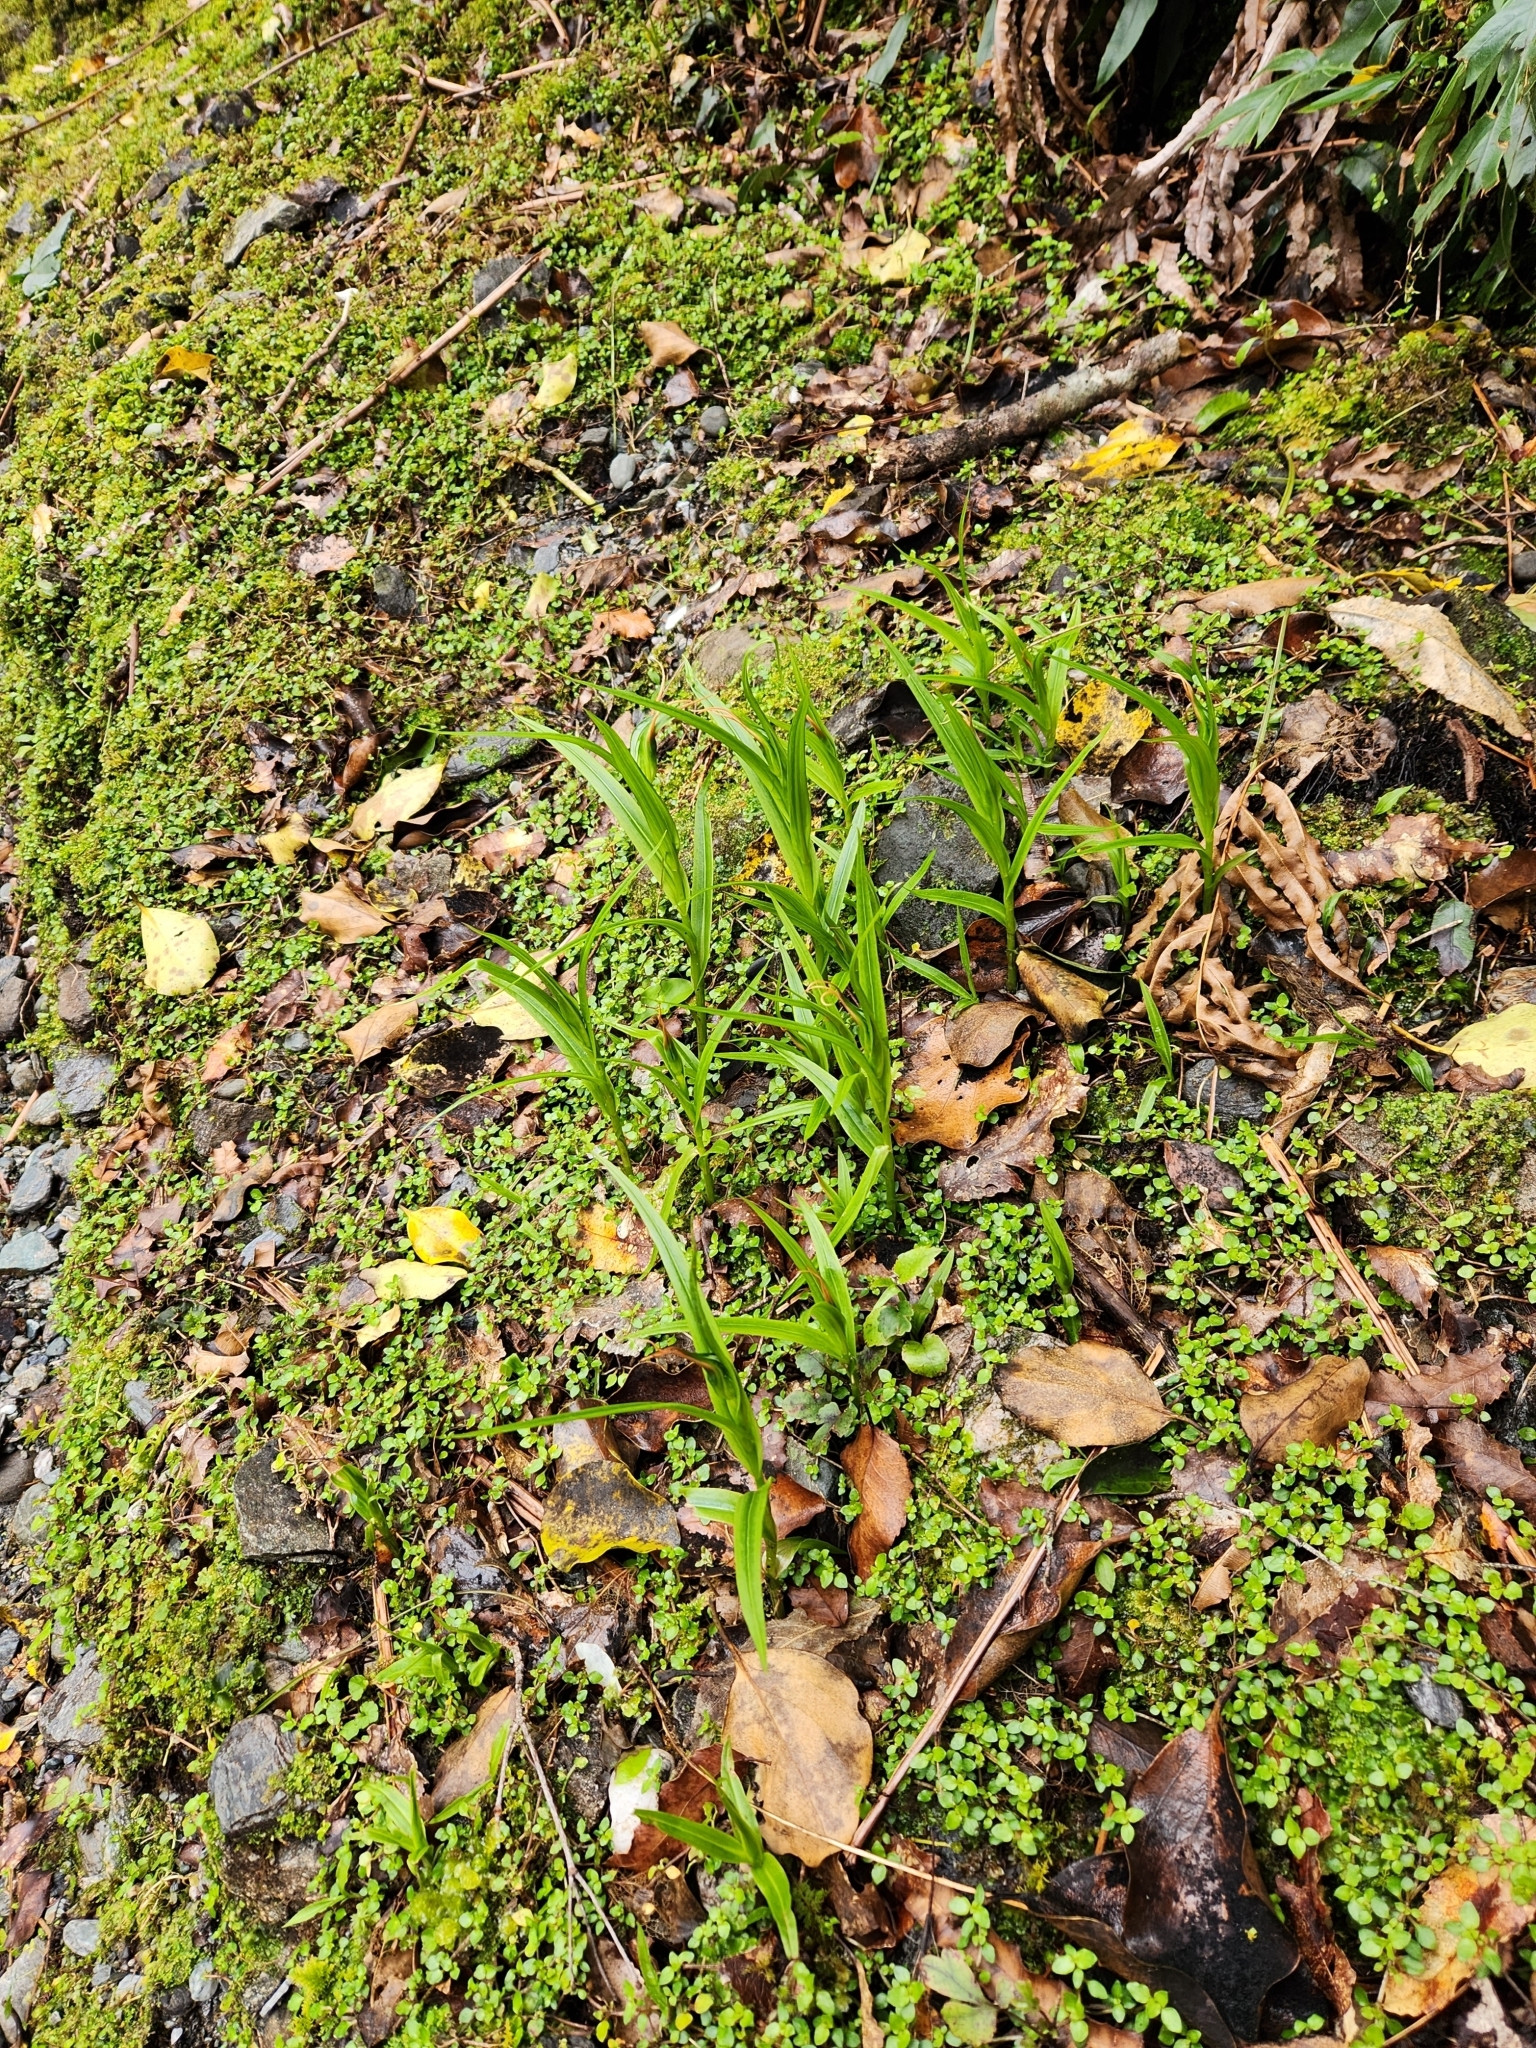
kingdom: Plantae
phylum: Tracheophyta
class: Liliopsida
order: Asparagales
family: Orchidaceae
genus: Pterostylis
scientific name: Pterostylis banksii
